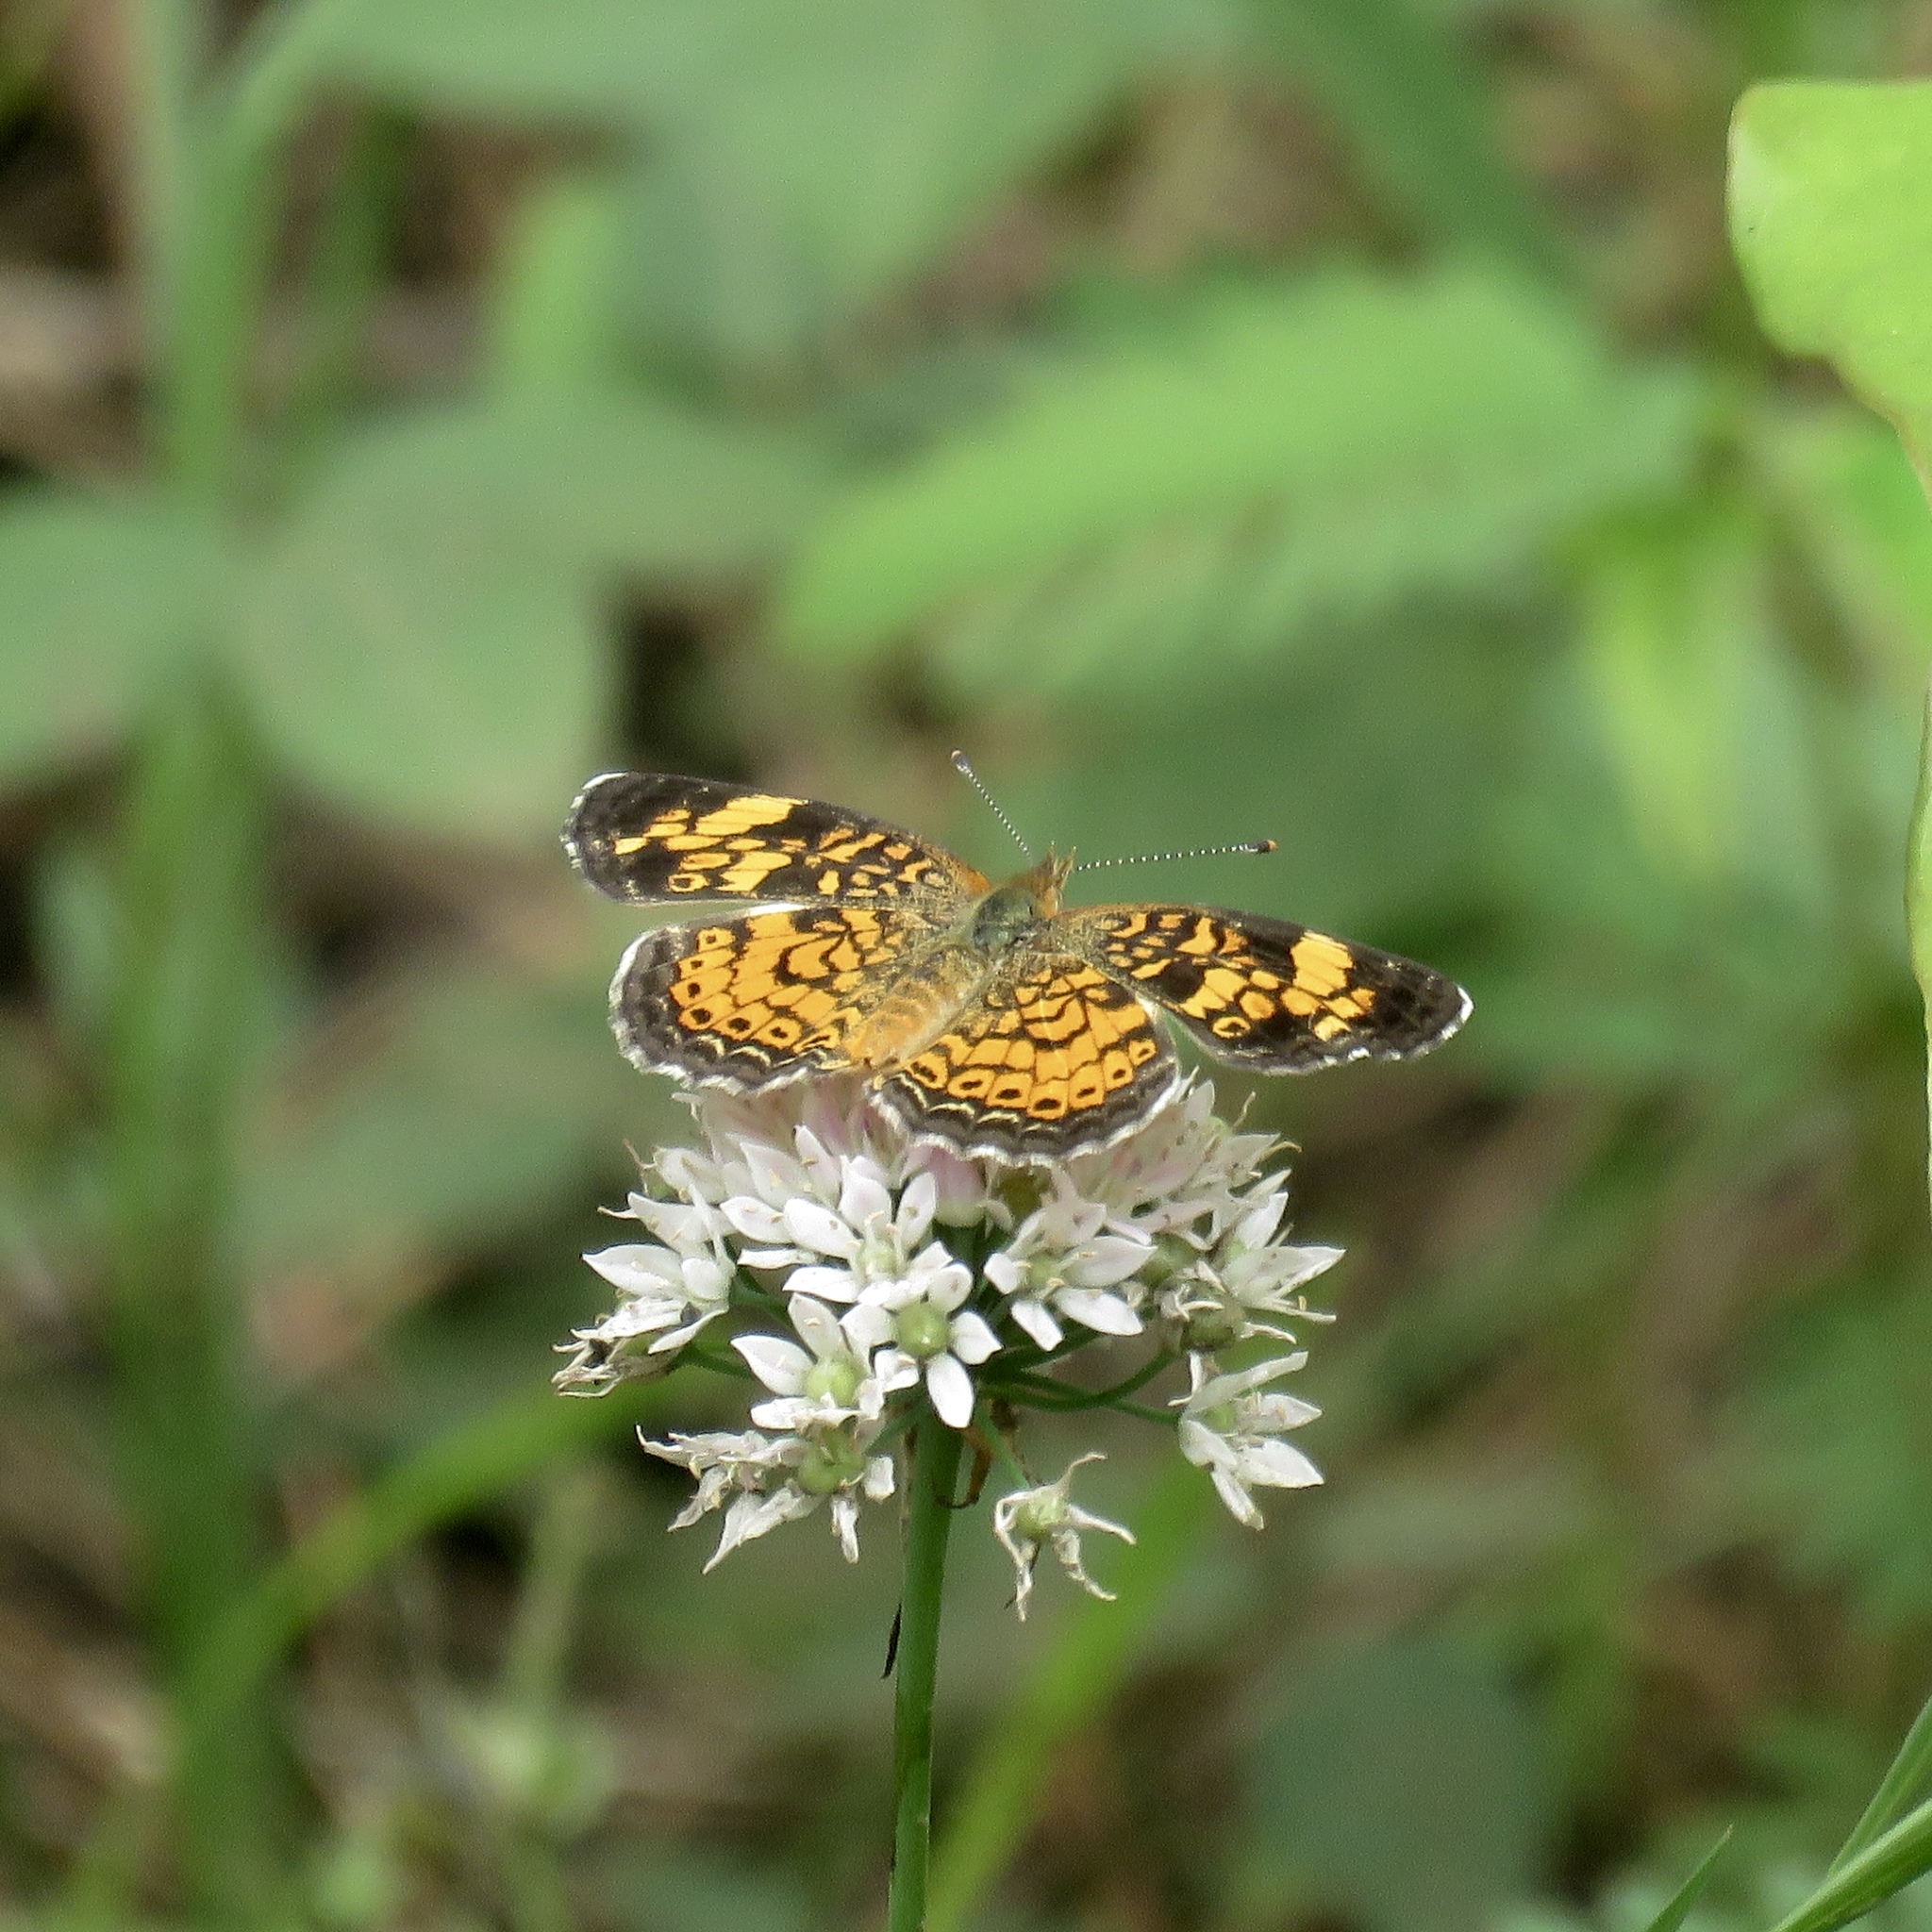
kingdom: Animalia
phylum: Arthropoda
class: Insecta
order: Lepidoptera
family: Nymphalidae
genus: Phyciodes
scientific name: Phyciodes tharos
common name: Pearl crescent
